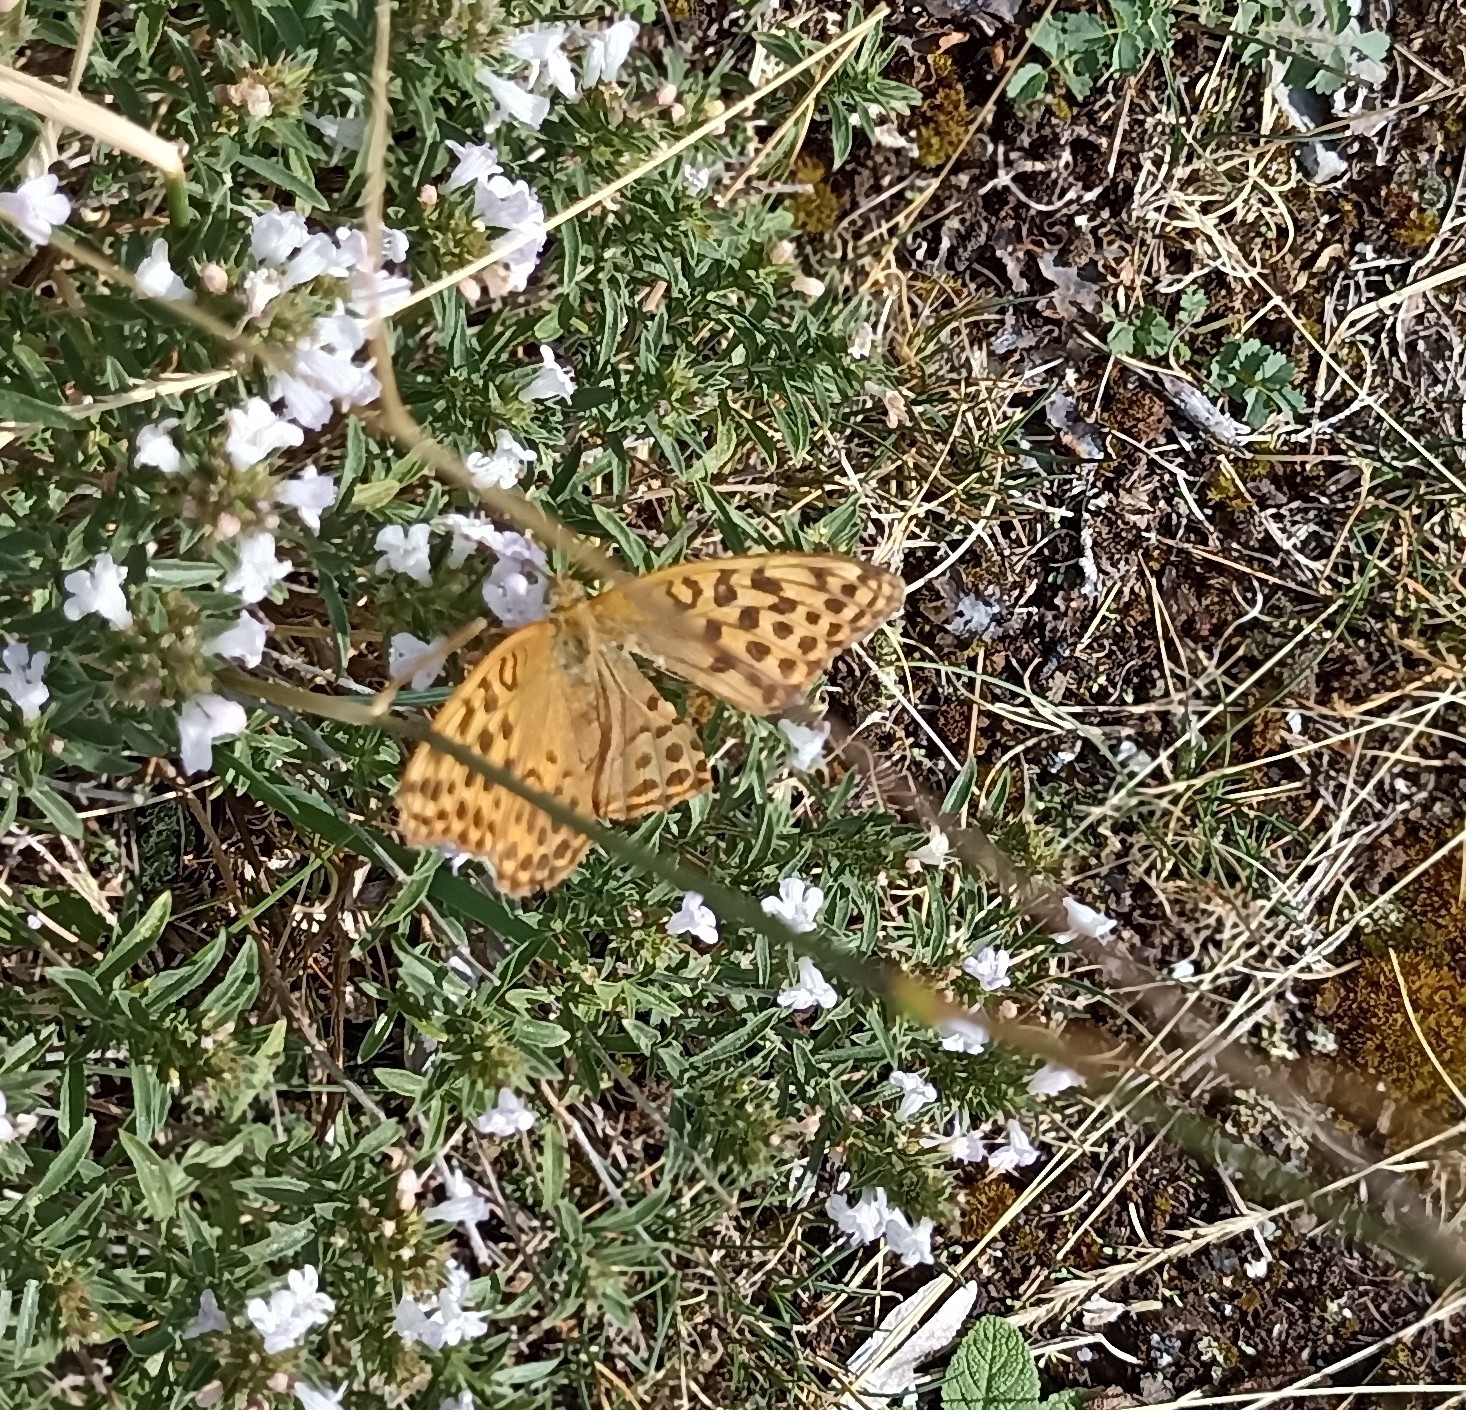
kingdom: Animalia
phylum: Arthropoda
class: Insecta
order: Lepidoptera
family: Nymphalidae
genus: Argynnis
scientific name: Argynnis paphia
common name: Silver-washed fritillary
